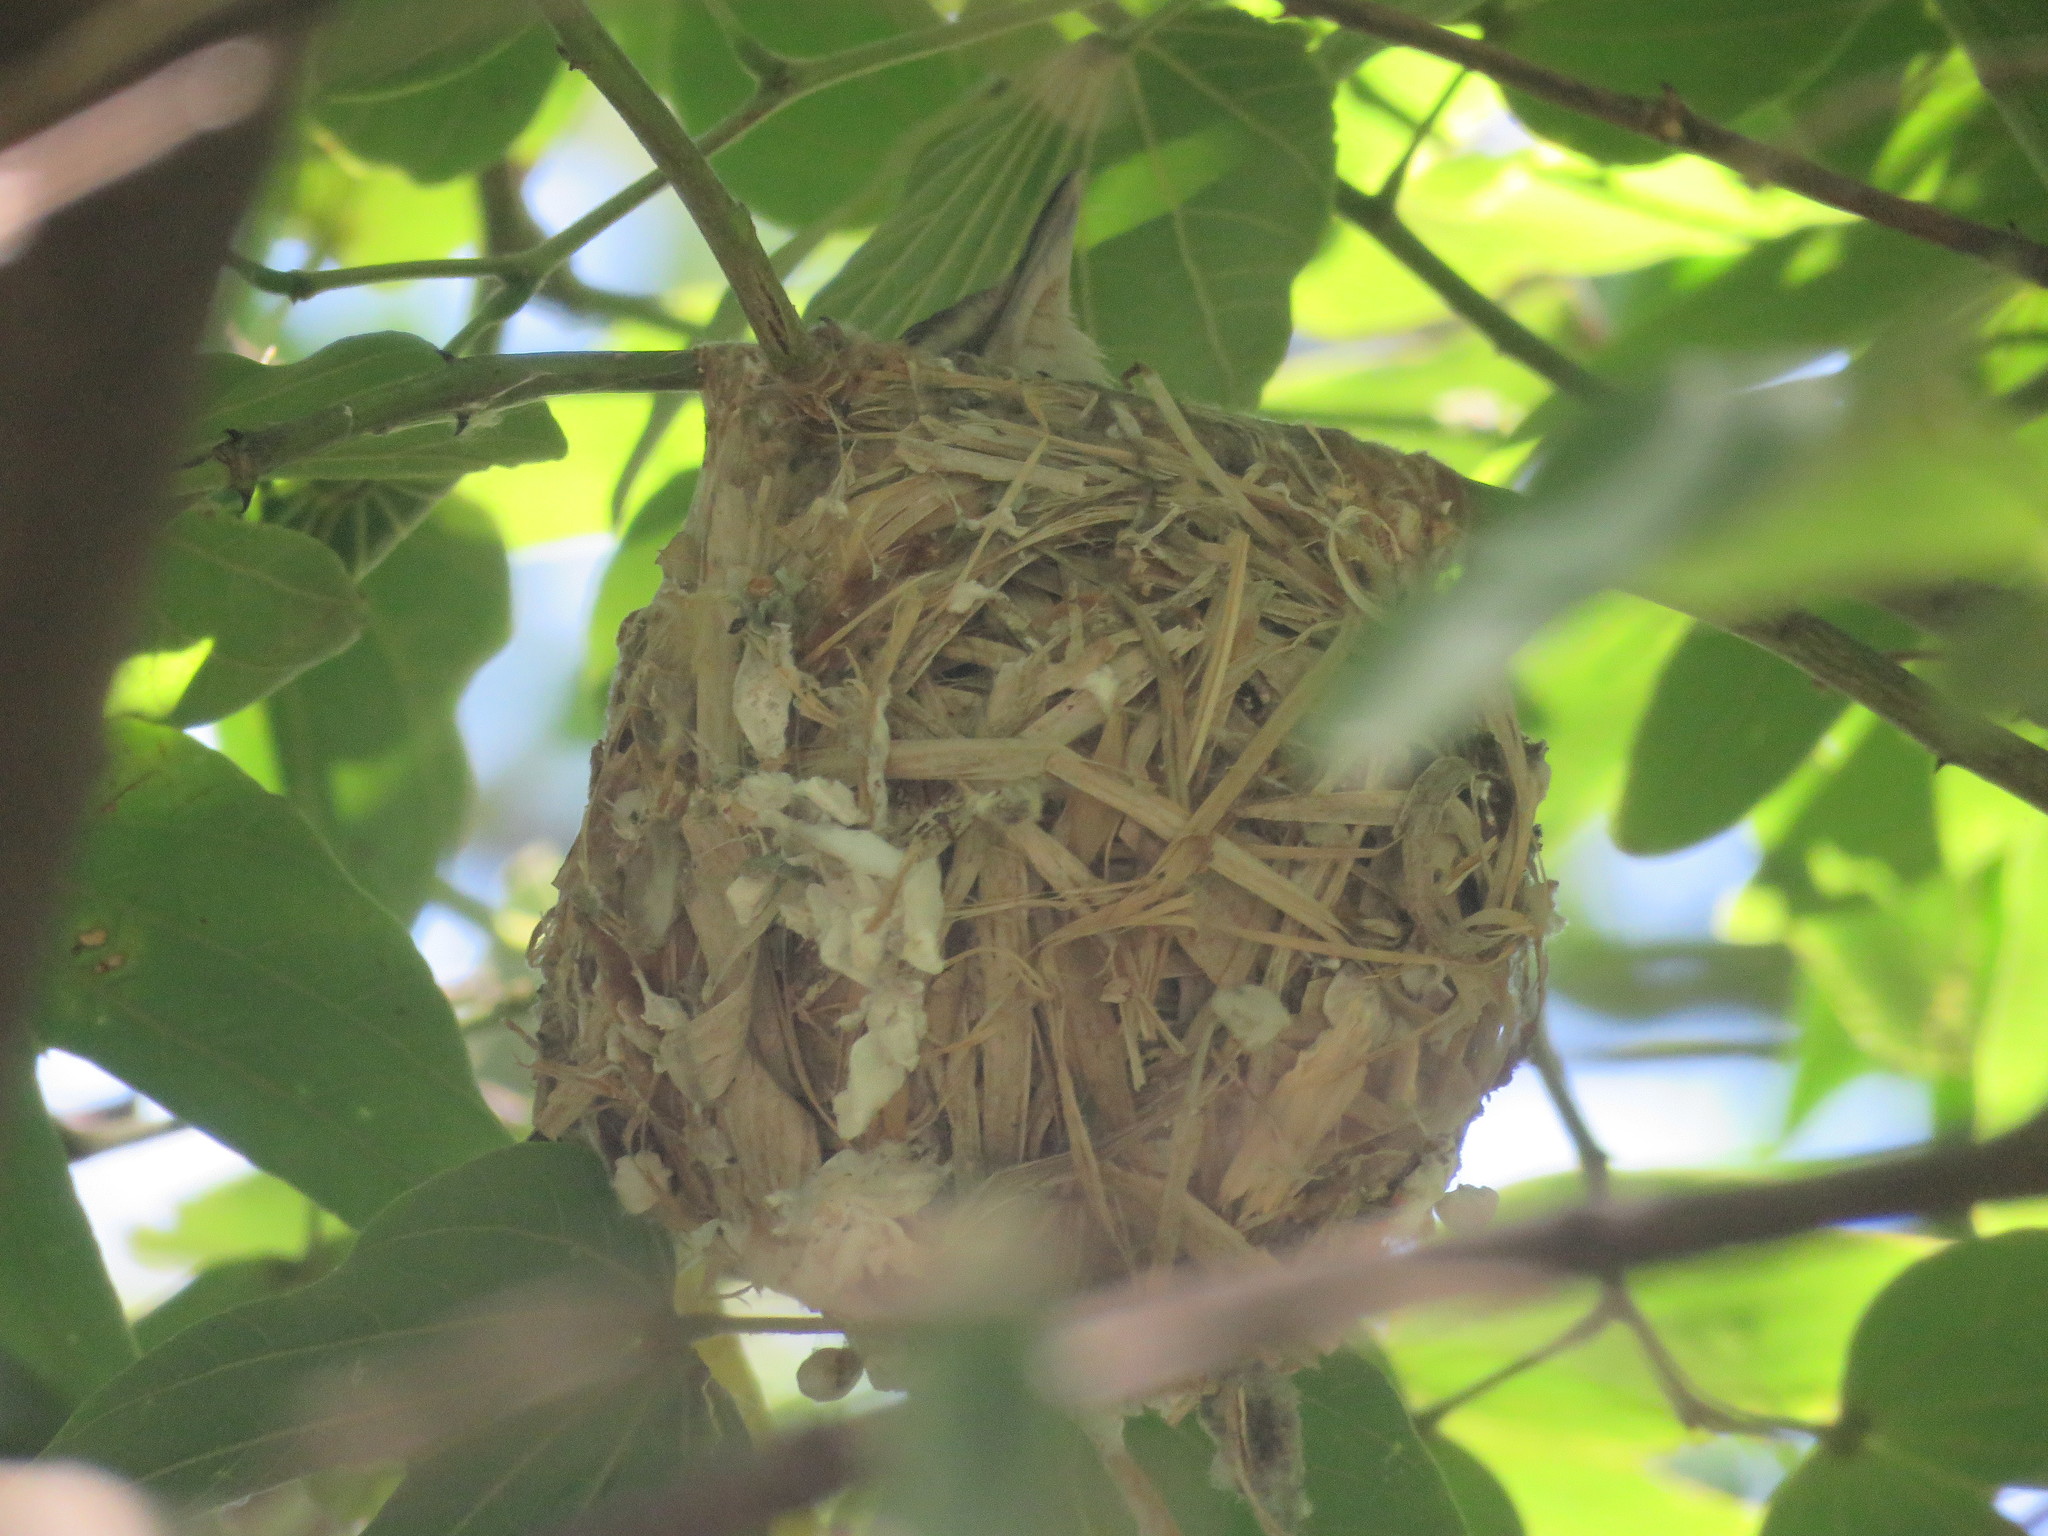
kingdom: Animalia
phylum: Chordata
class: Aves
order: Passeriformes
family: Vireonidae
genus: Vireo
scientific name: Vireo olivaceus
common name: Red-eyed vireo
